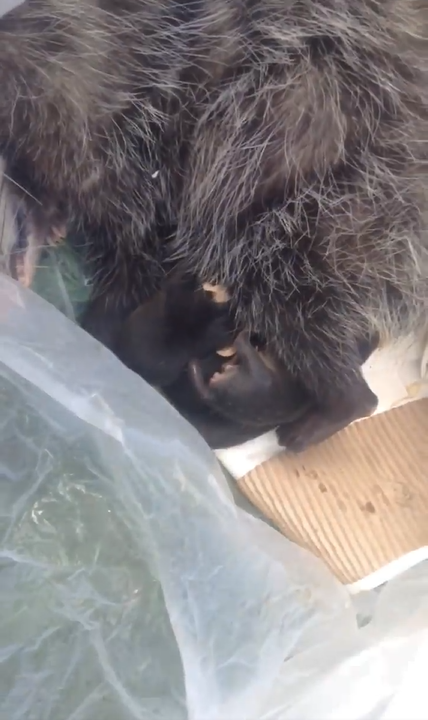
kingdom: Animalia
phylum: Chordata
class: Mammalia
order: Didelphimorphia
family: Didelphidae
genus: Didelphis
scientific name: Didelphis virginiana
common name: Virginia opossum
